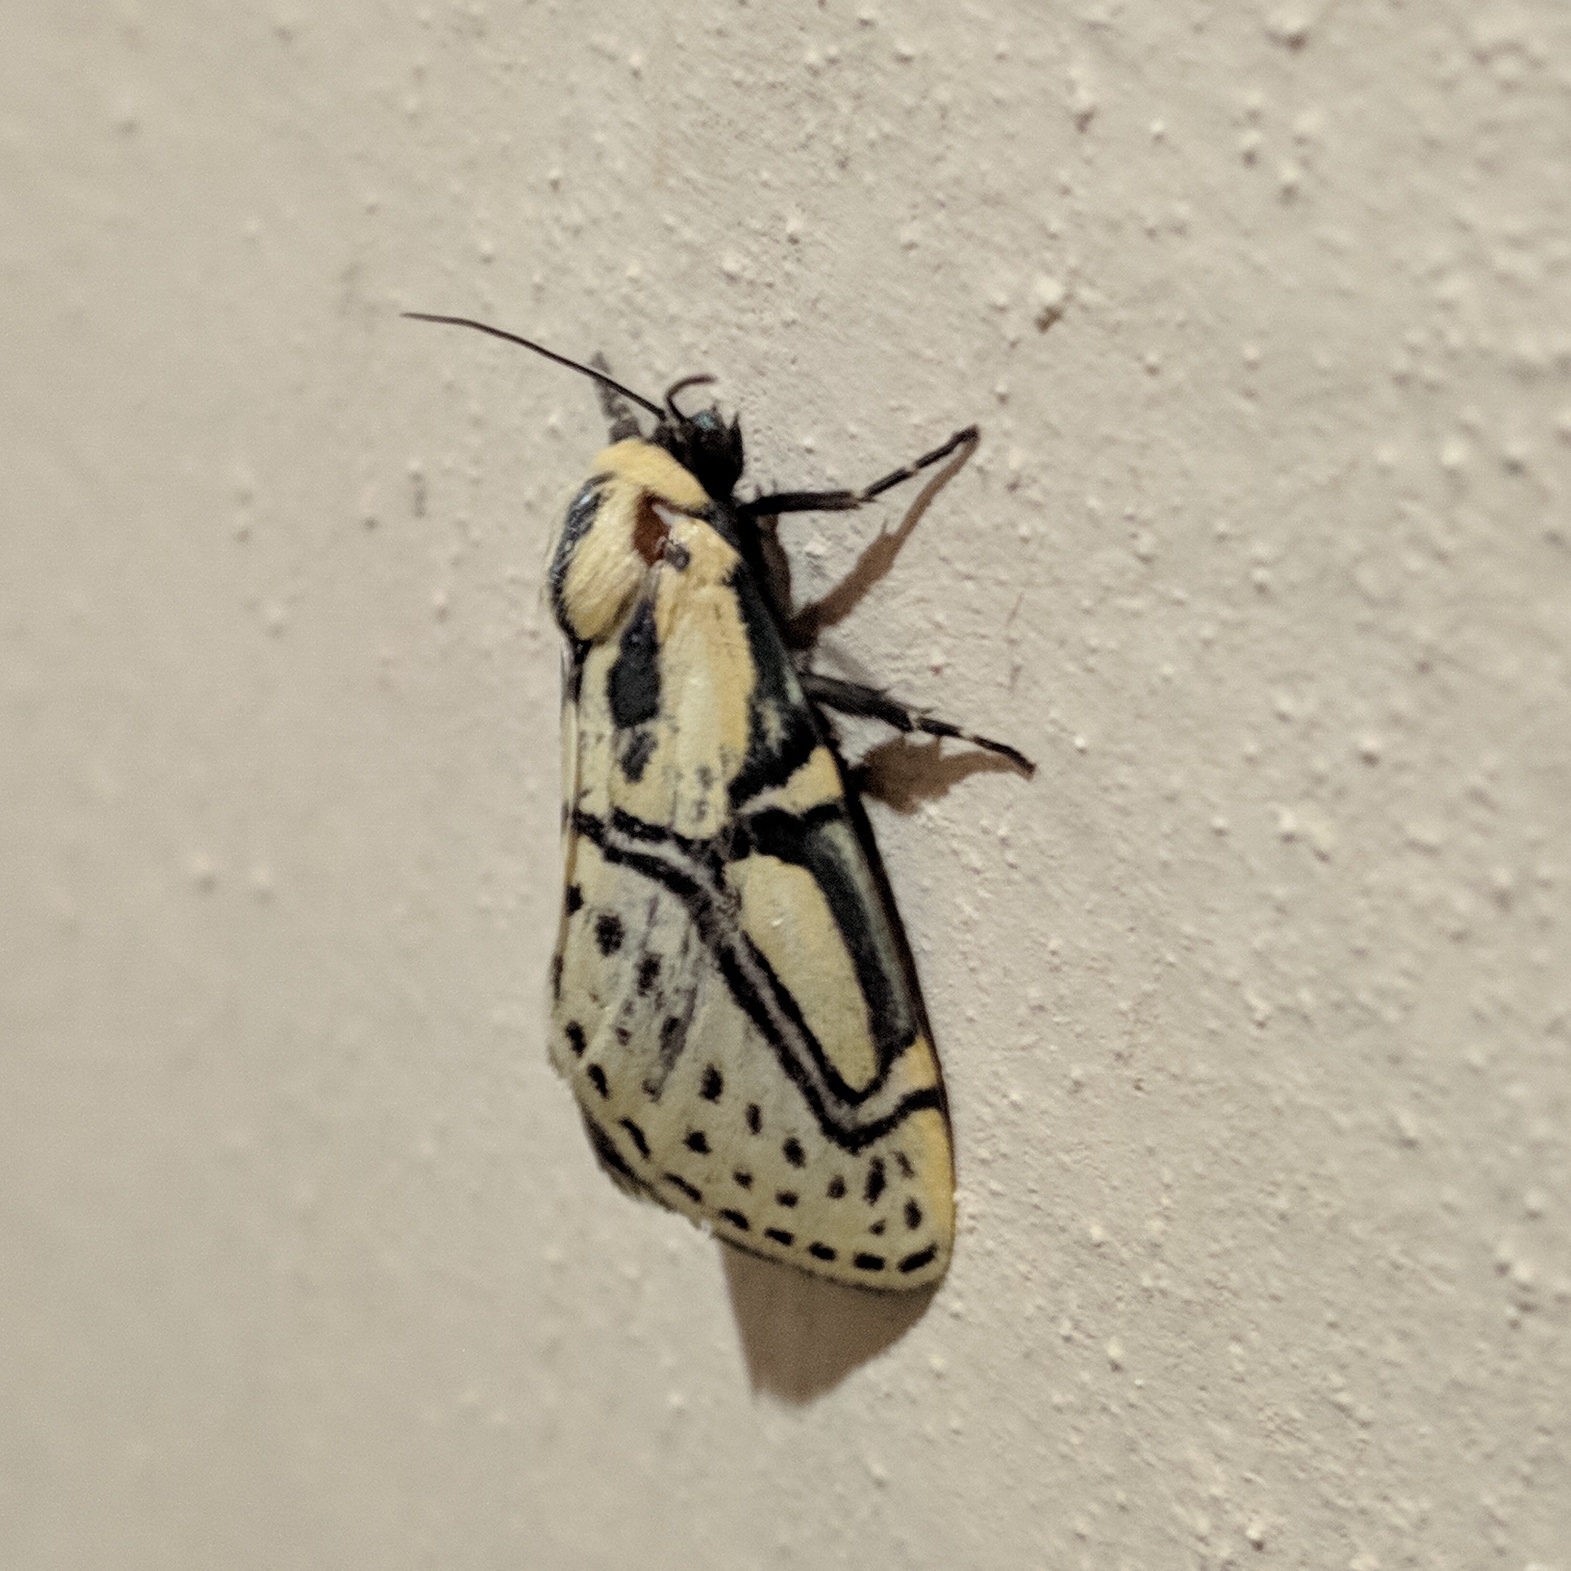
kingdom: Animalia
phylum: Arthropoda
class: Insecta
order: Lepidoptera
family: Erebidae
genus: Diphthera
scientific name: Diphthera festiva
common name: Hieroglyphic moth
